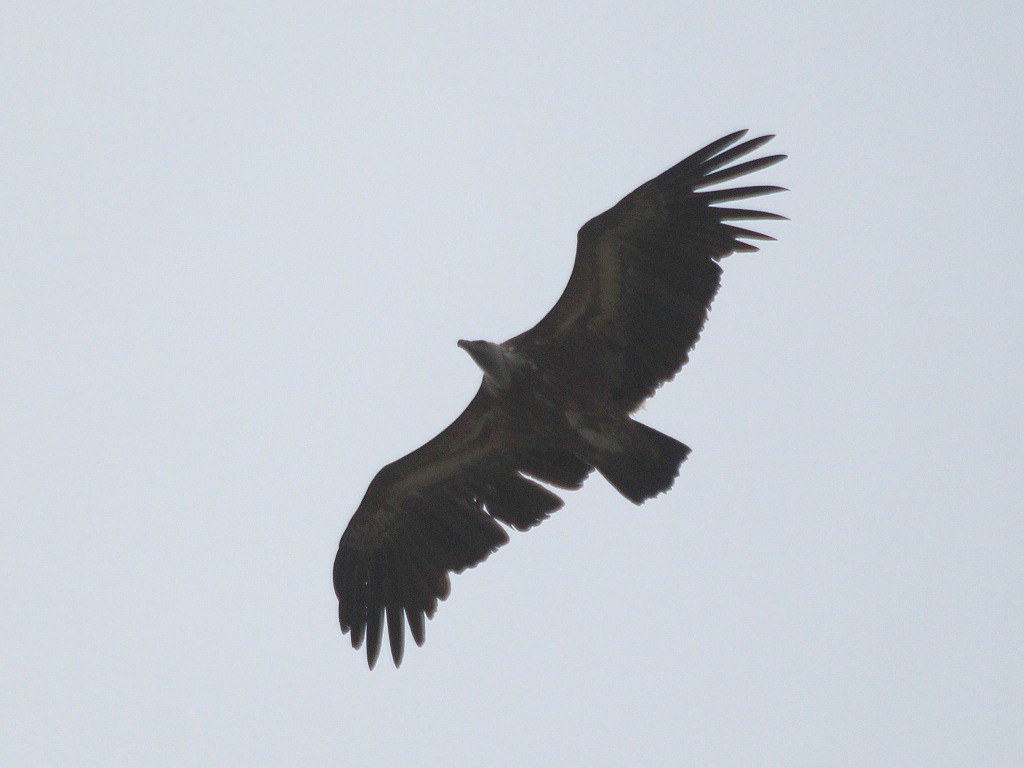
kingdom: Animalia
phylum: Chordata
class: Aves
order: Accipitriformes
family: Accipitridae
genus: Gyps
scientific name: Gyps fulvus
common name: Griffon vulture
